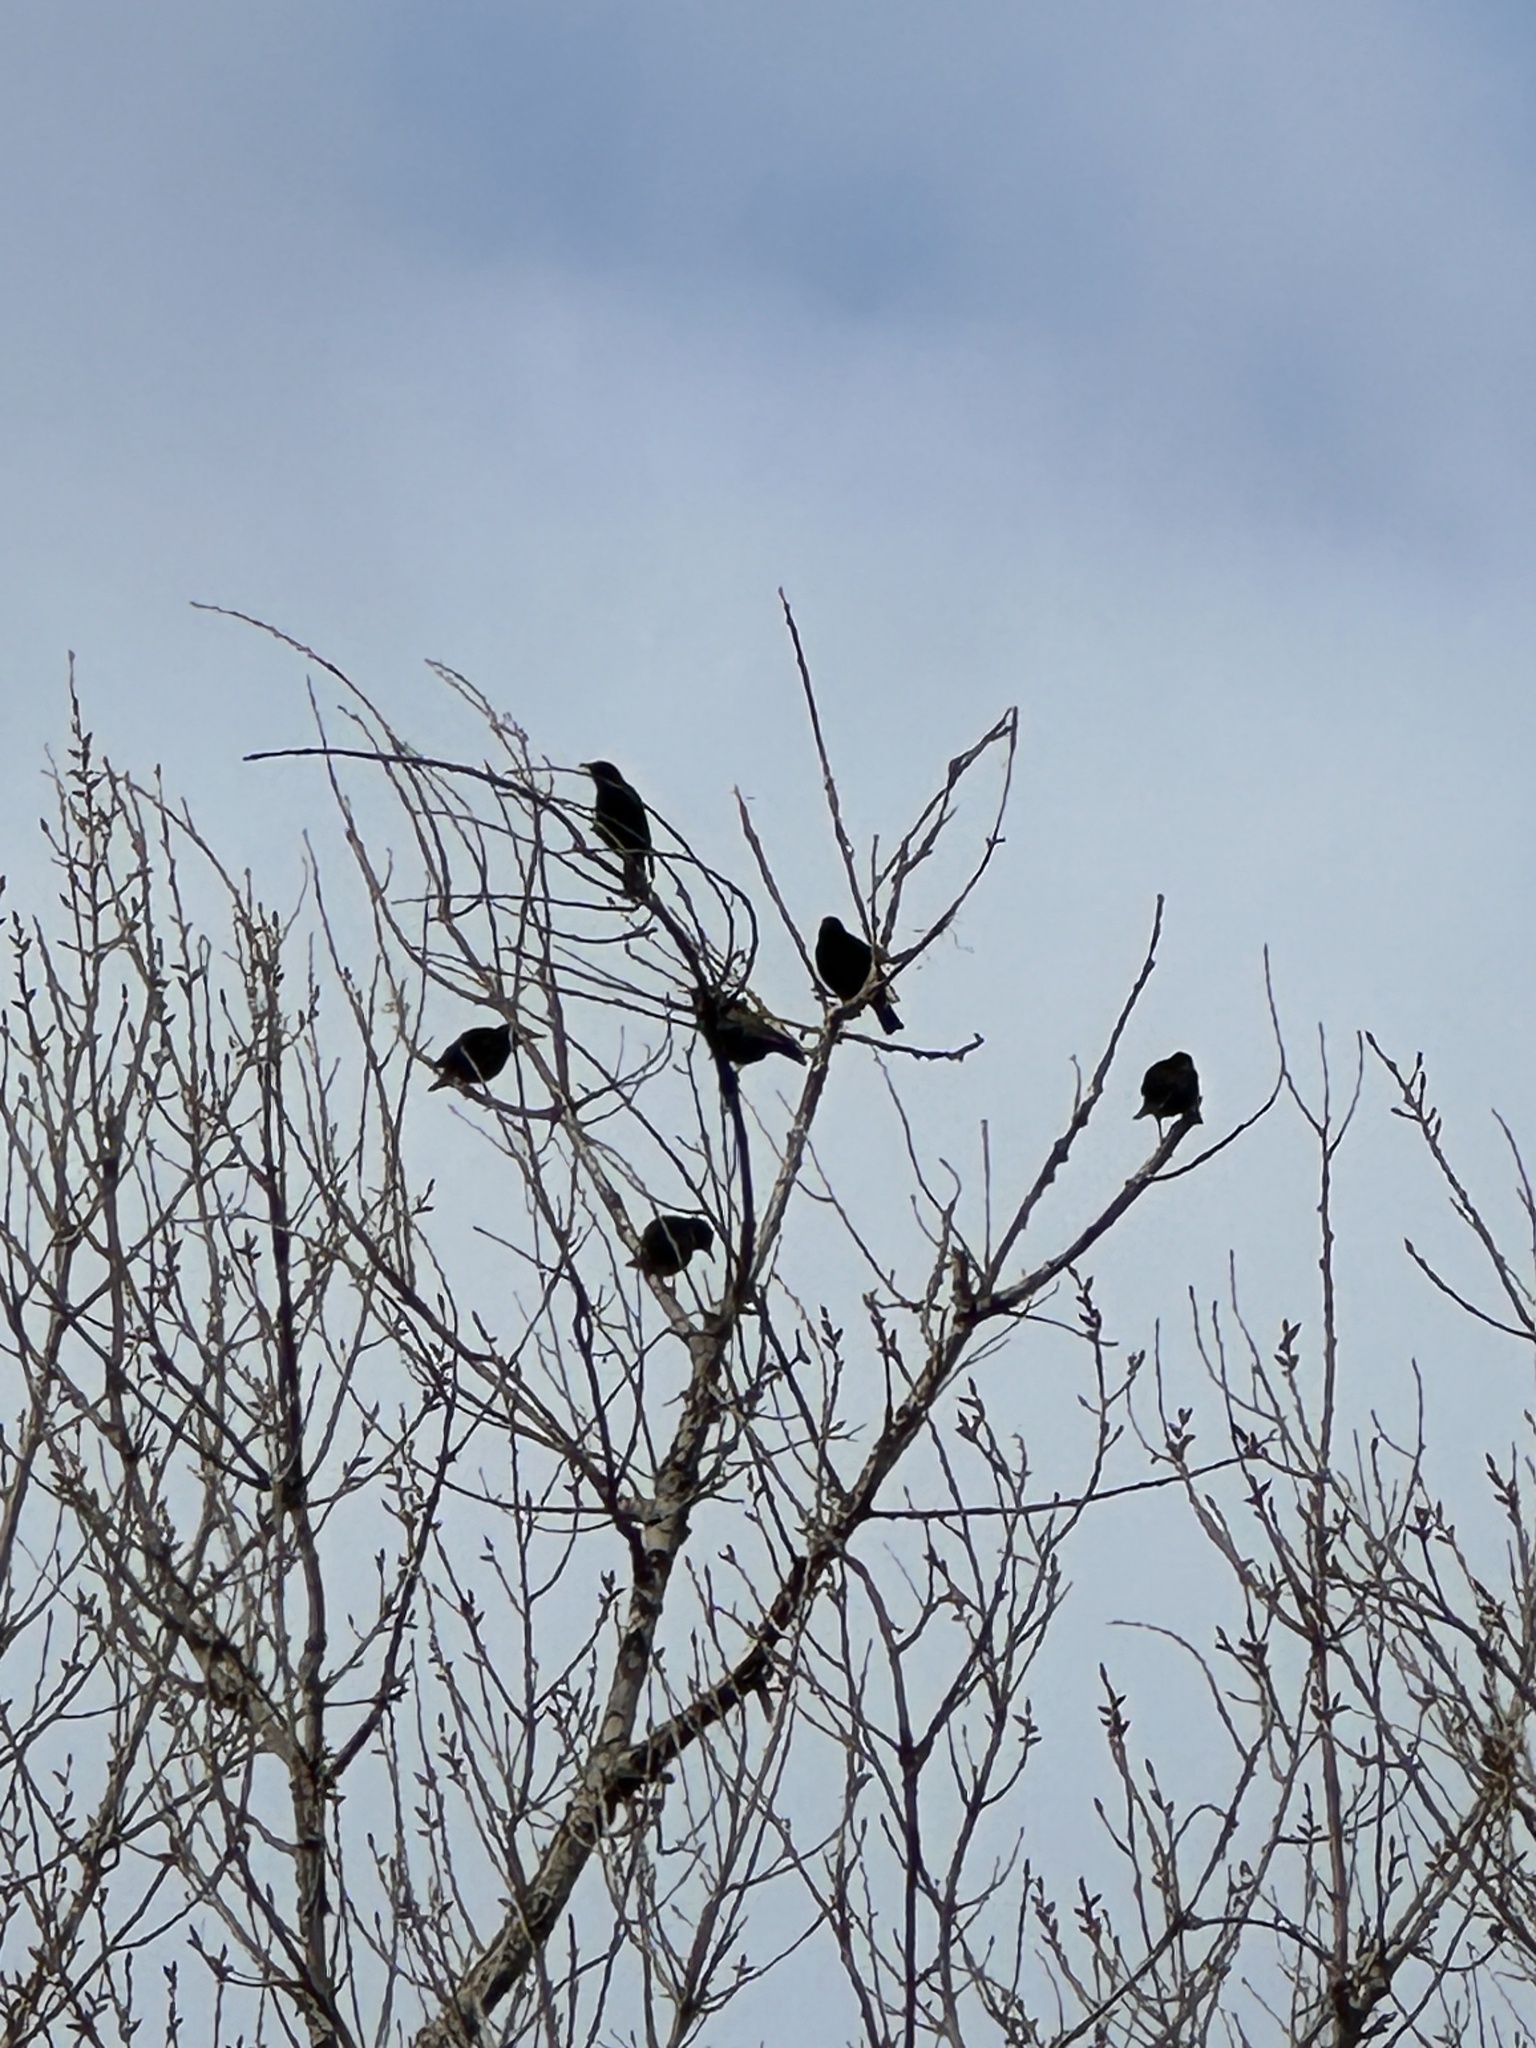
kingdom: Animalia
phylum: Chordata
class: Aves
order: Passeriformes
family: Sturnidae
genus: Sturnus
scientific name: Sturnus vulgaris
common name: Common starling
